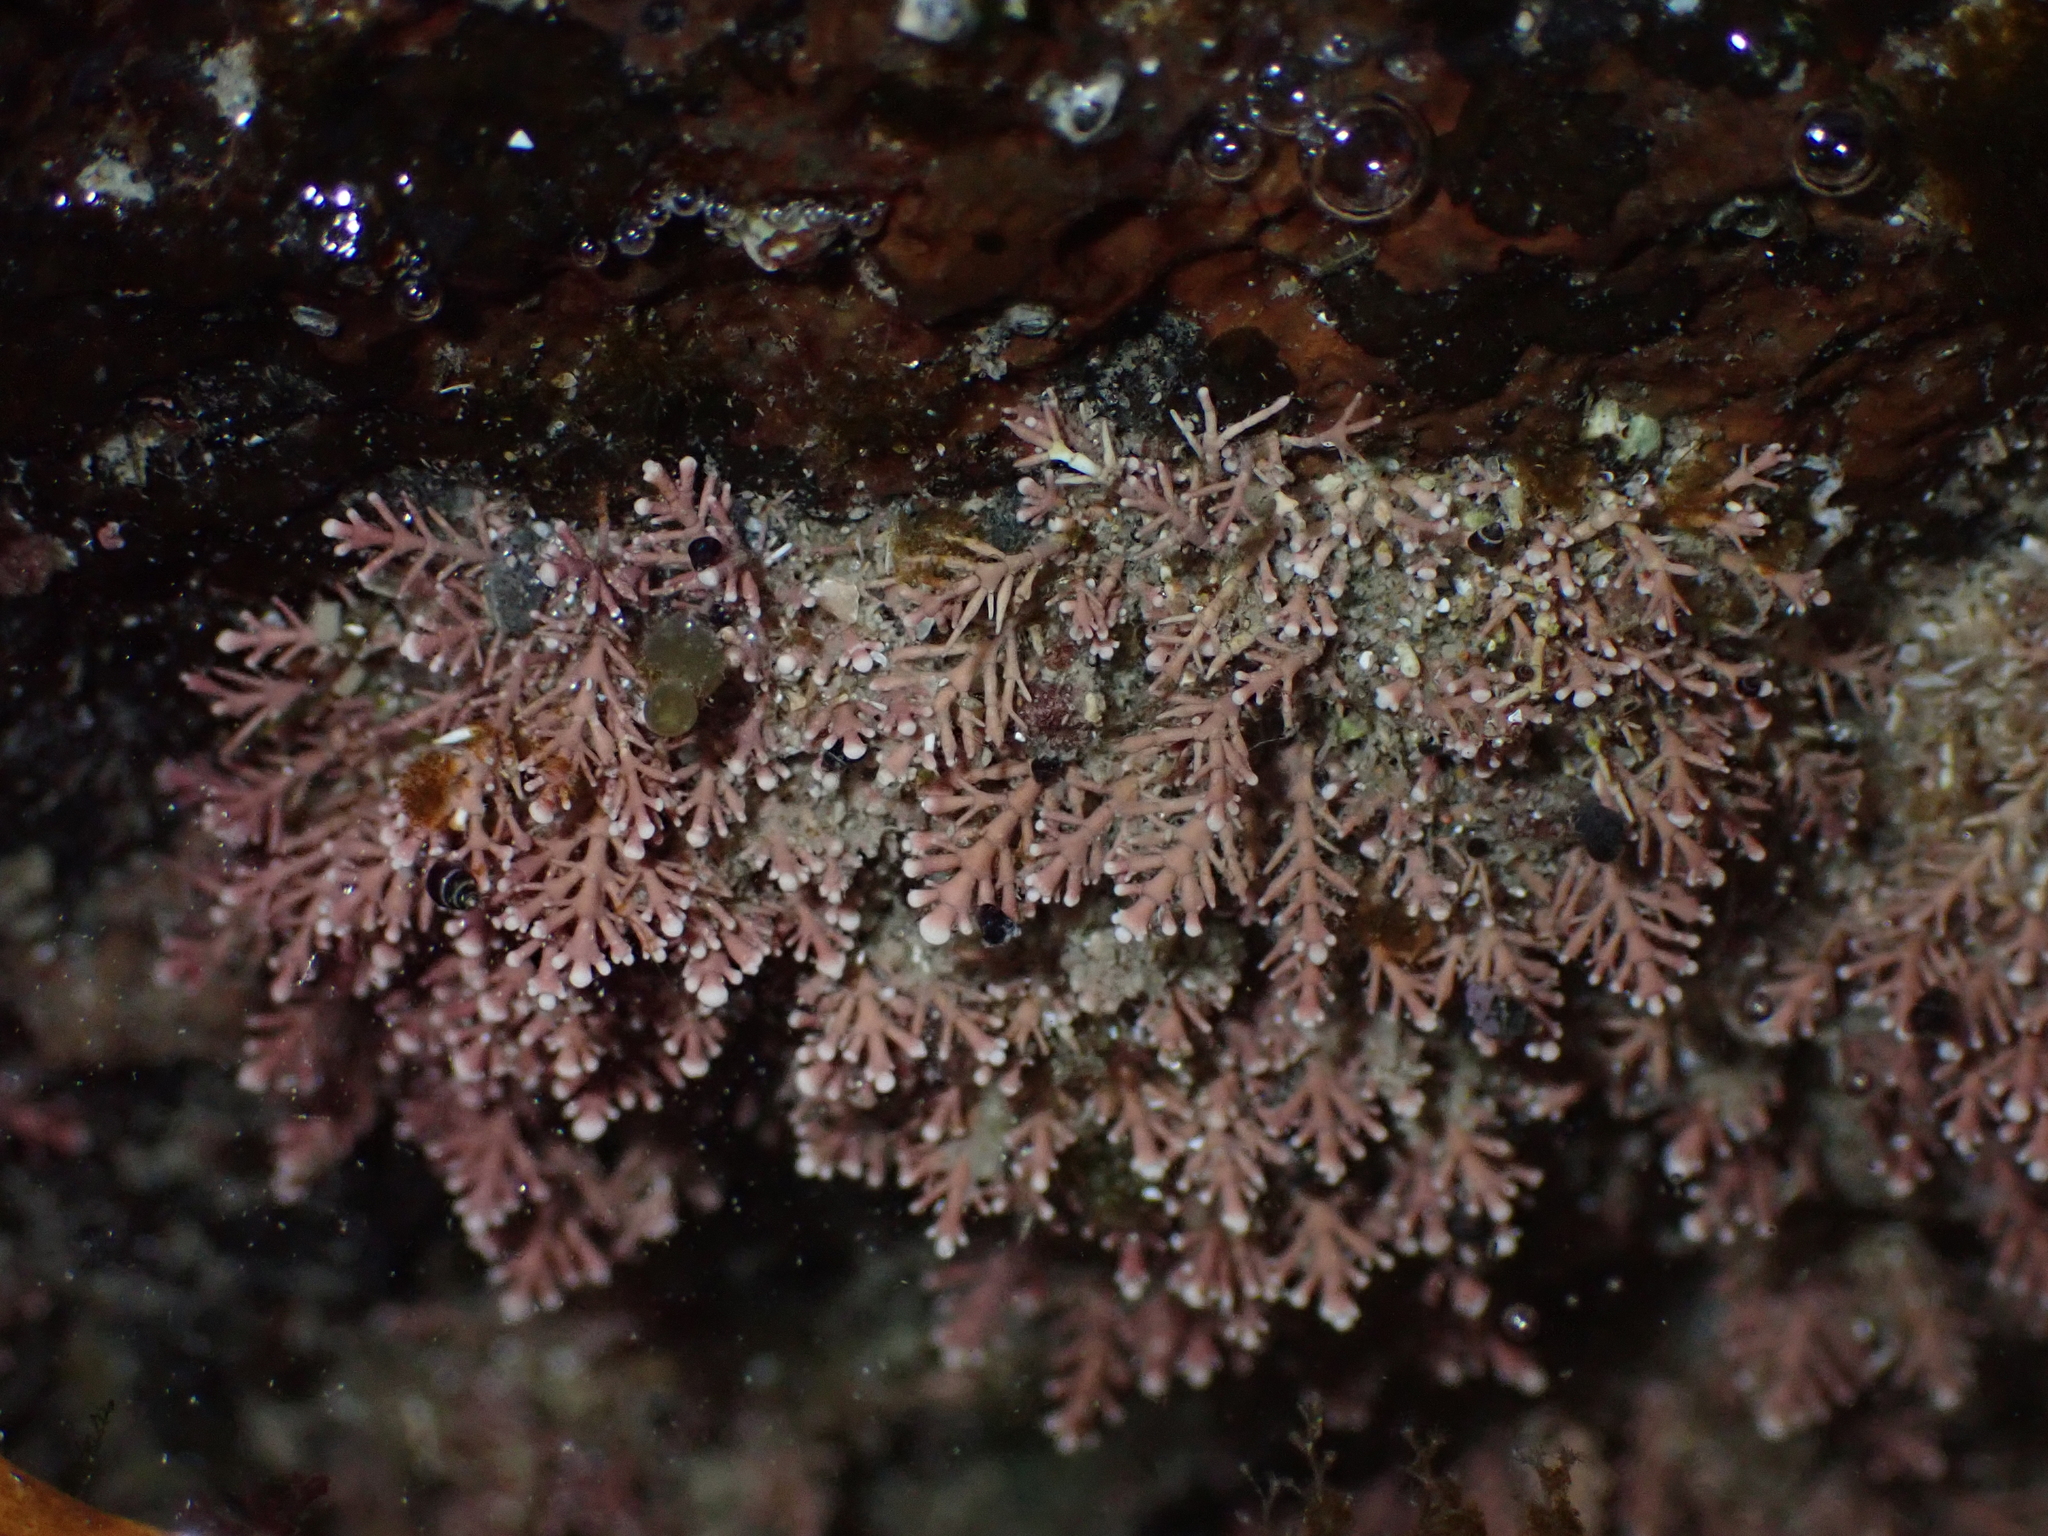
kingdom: Plantae
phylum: Rhodophyta
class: Florideophyceae
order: Corallinales
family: Corallinaceae
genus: Corallina
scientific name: Corallina officinalis
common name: Coral weed
